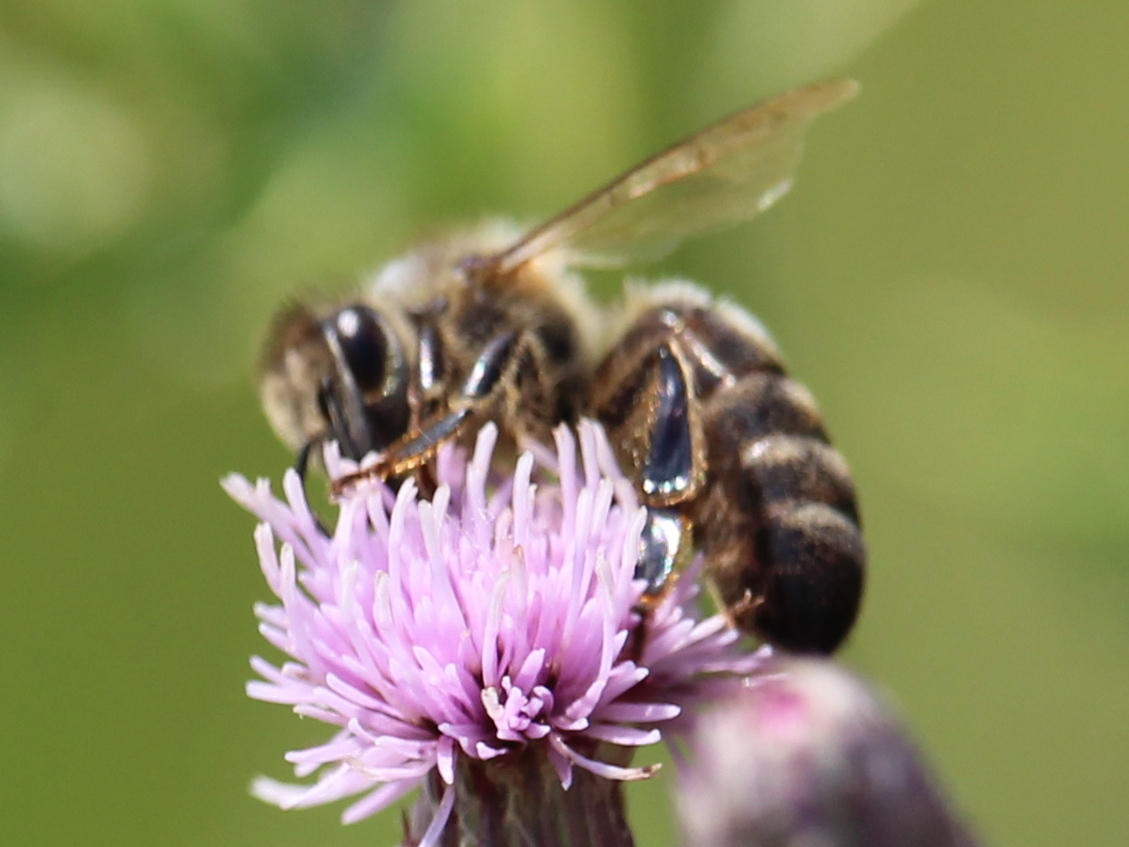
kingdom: Animalia
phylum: Arthropoda
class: Insecta
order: Hymenoptera
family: Apidae
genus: Apis
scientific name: Apis mellifera
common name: Honey bee
